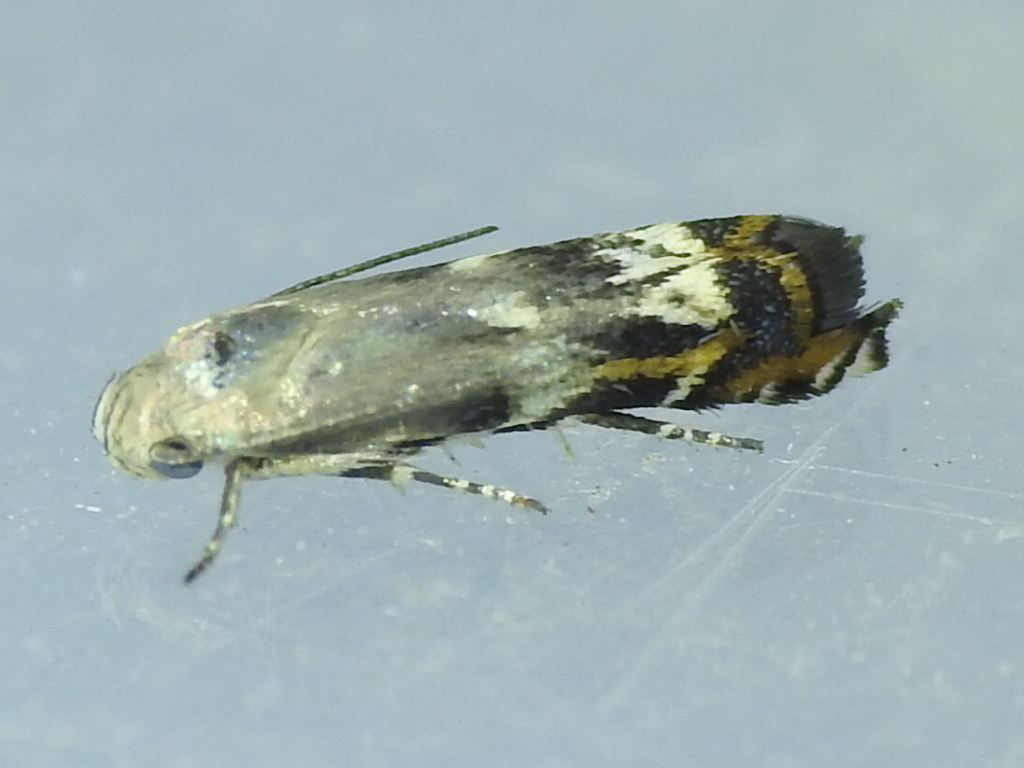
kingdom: Animalia
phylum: Arthropoda
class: Insecta
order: Lepidoptera
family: Gelechiidae
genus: Calliprora
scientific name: Calliprora sexstrigella
